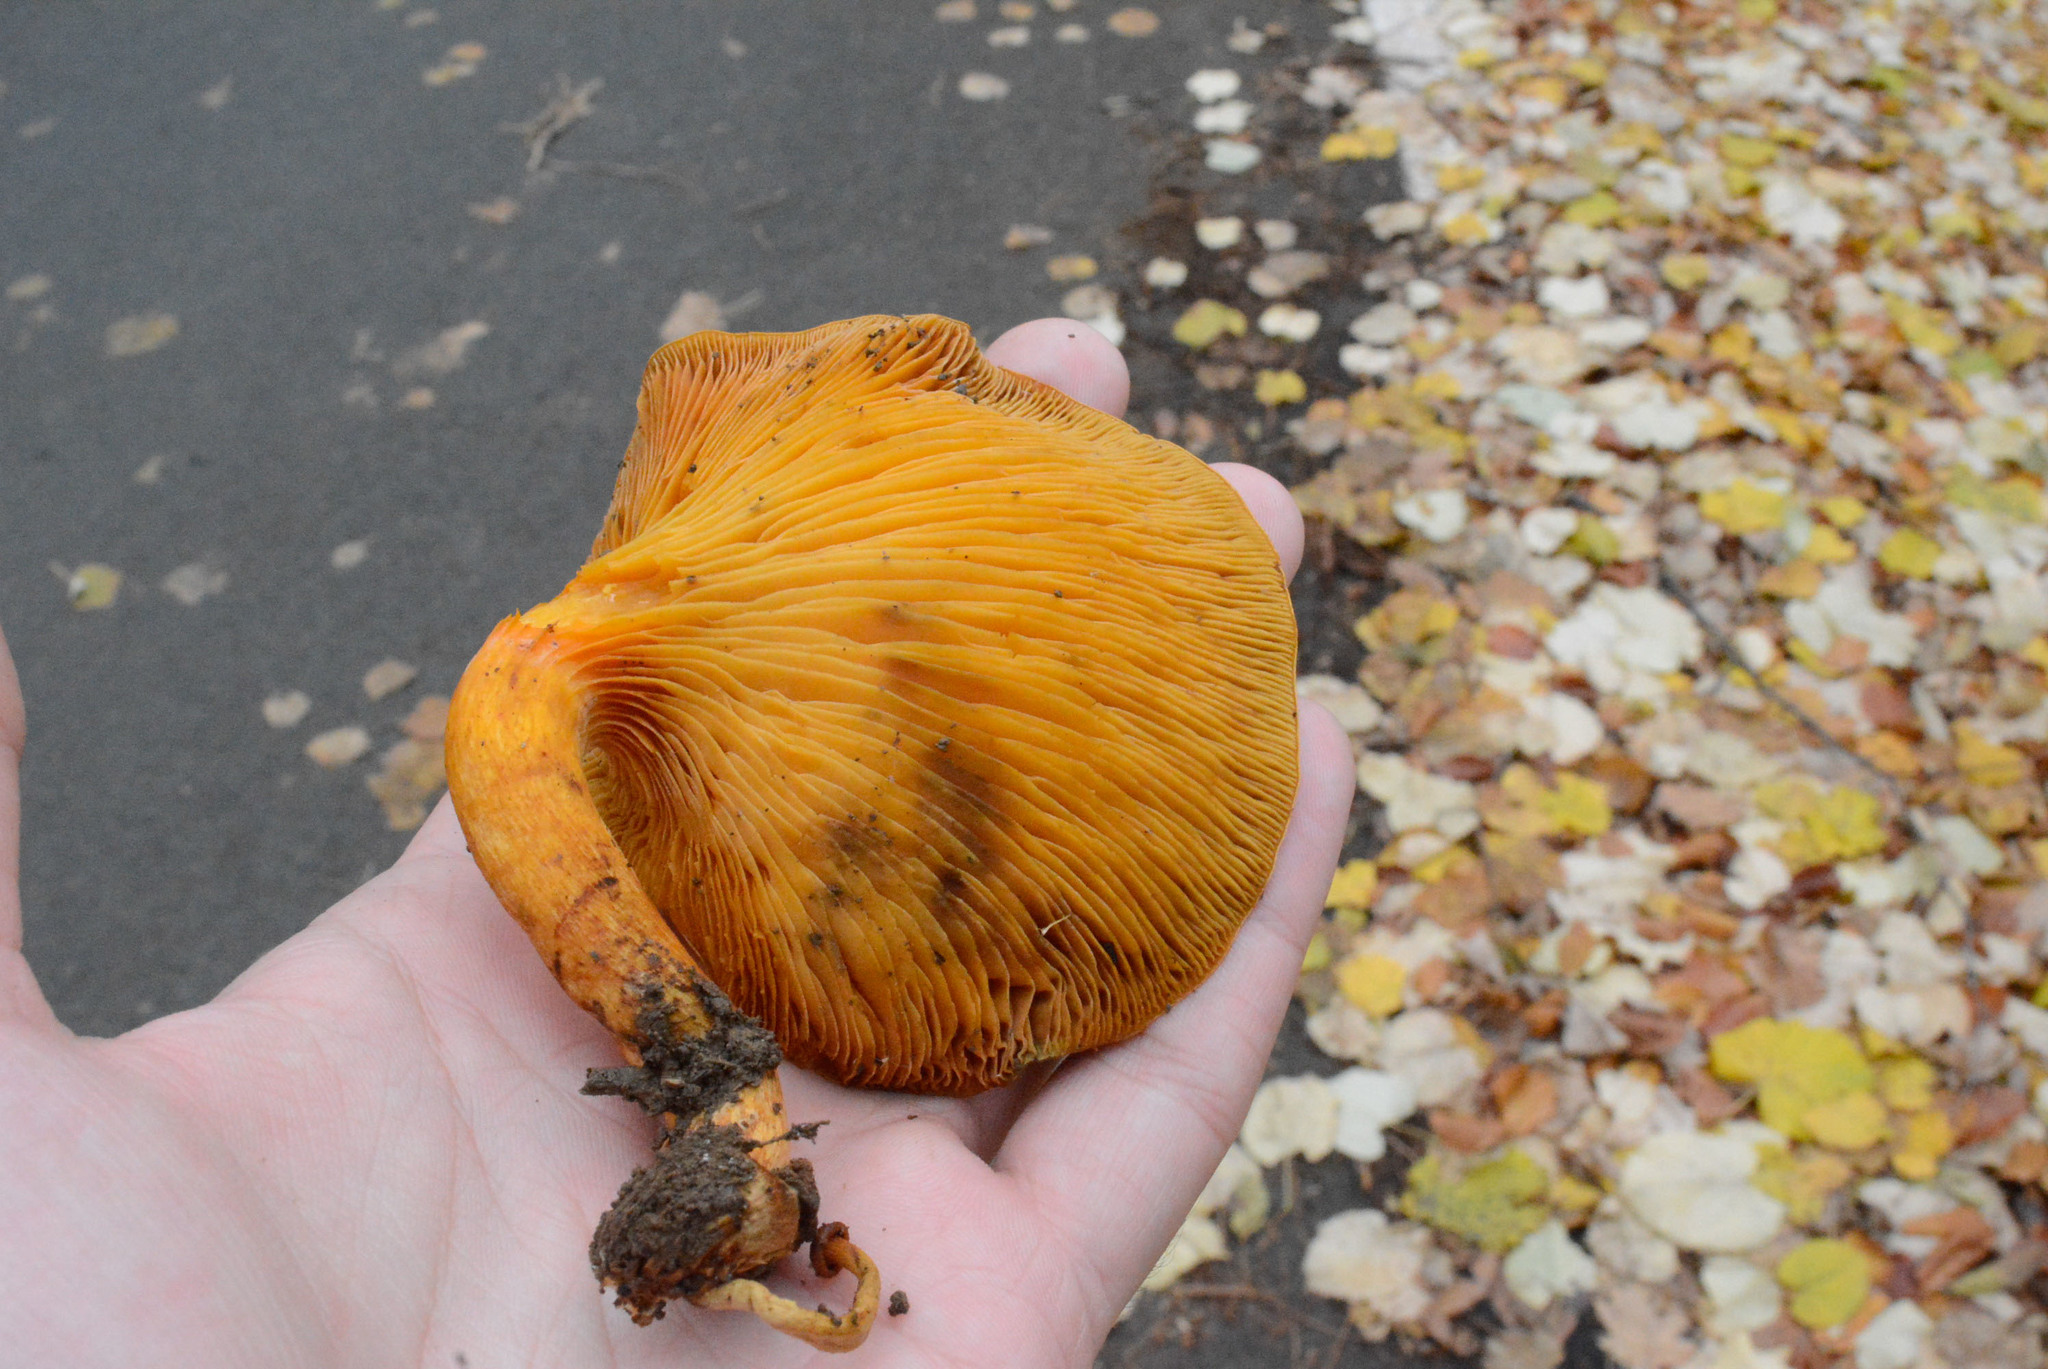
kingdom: Fungi
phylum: Basidiomycota
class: Agaricomycetes
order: Agaricales
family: Omphalotaceae
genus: Omphalotus
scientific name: Omphalotus olearius
